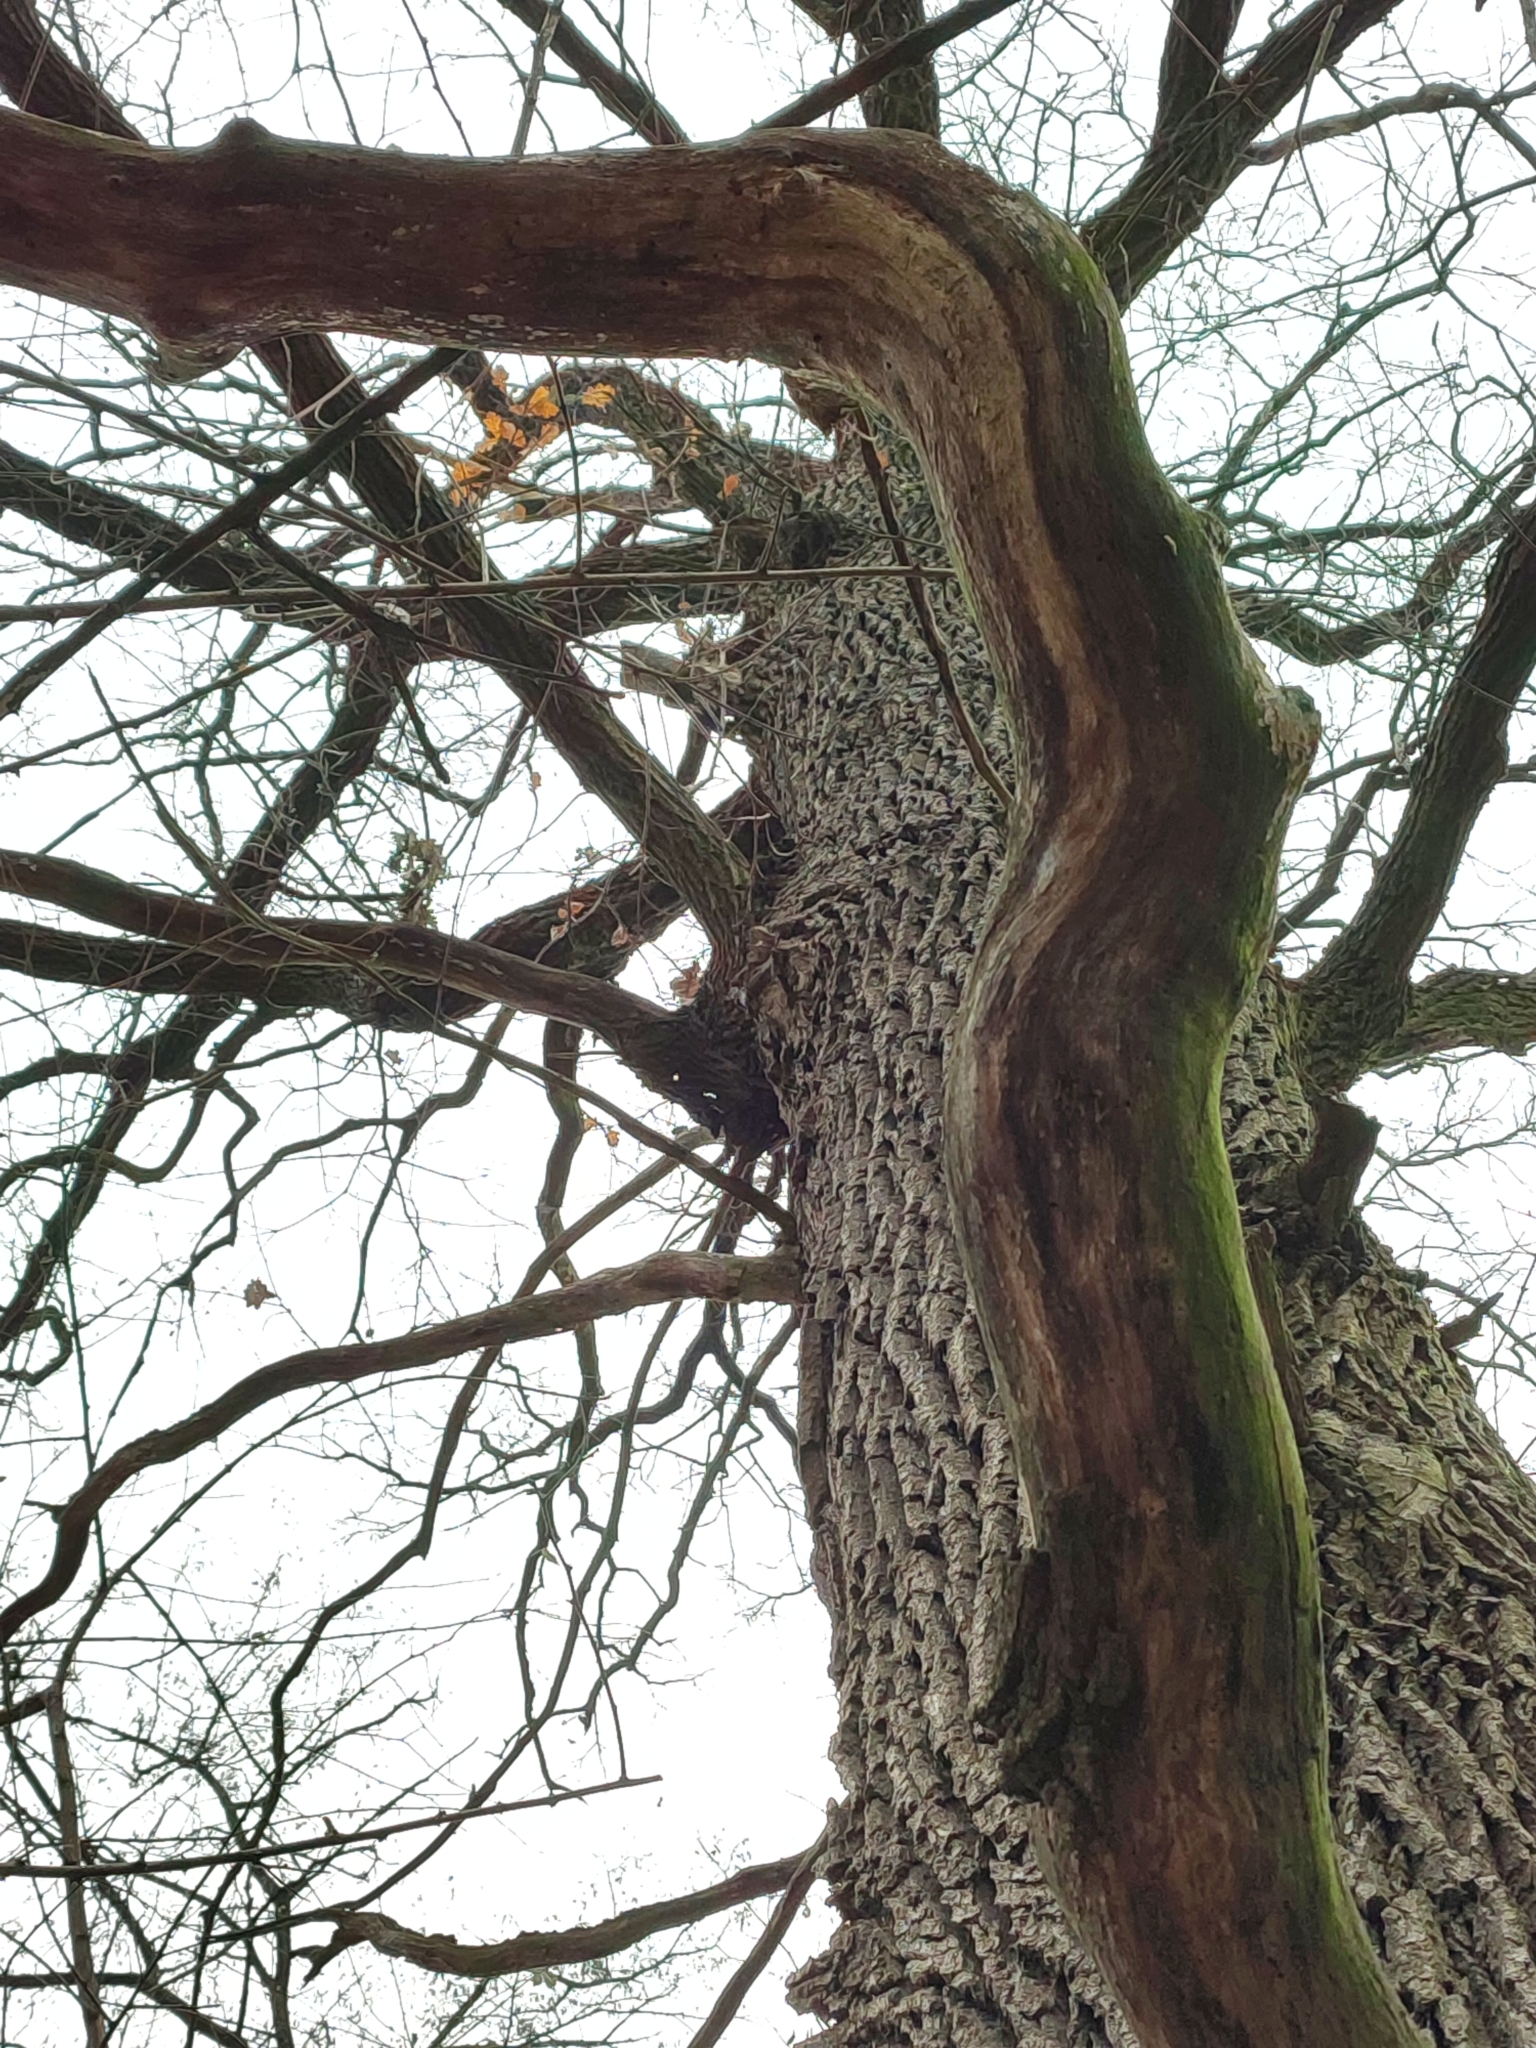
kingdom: Plantae
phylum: Tracheophyta
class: Magnoliopsida
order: Fagales
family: Fagaceae
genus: Quercus
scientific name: Quercus robur
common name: Pedunculate oak
